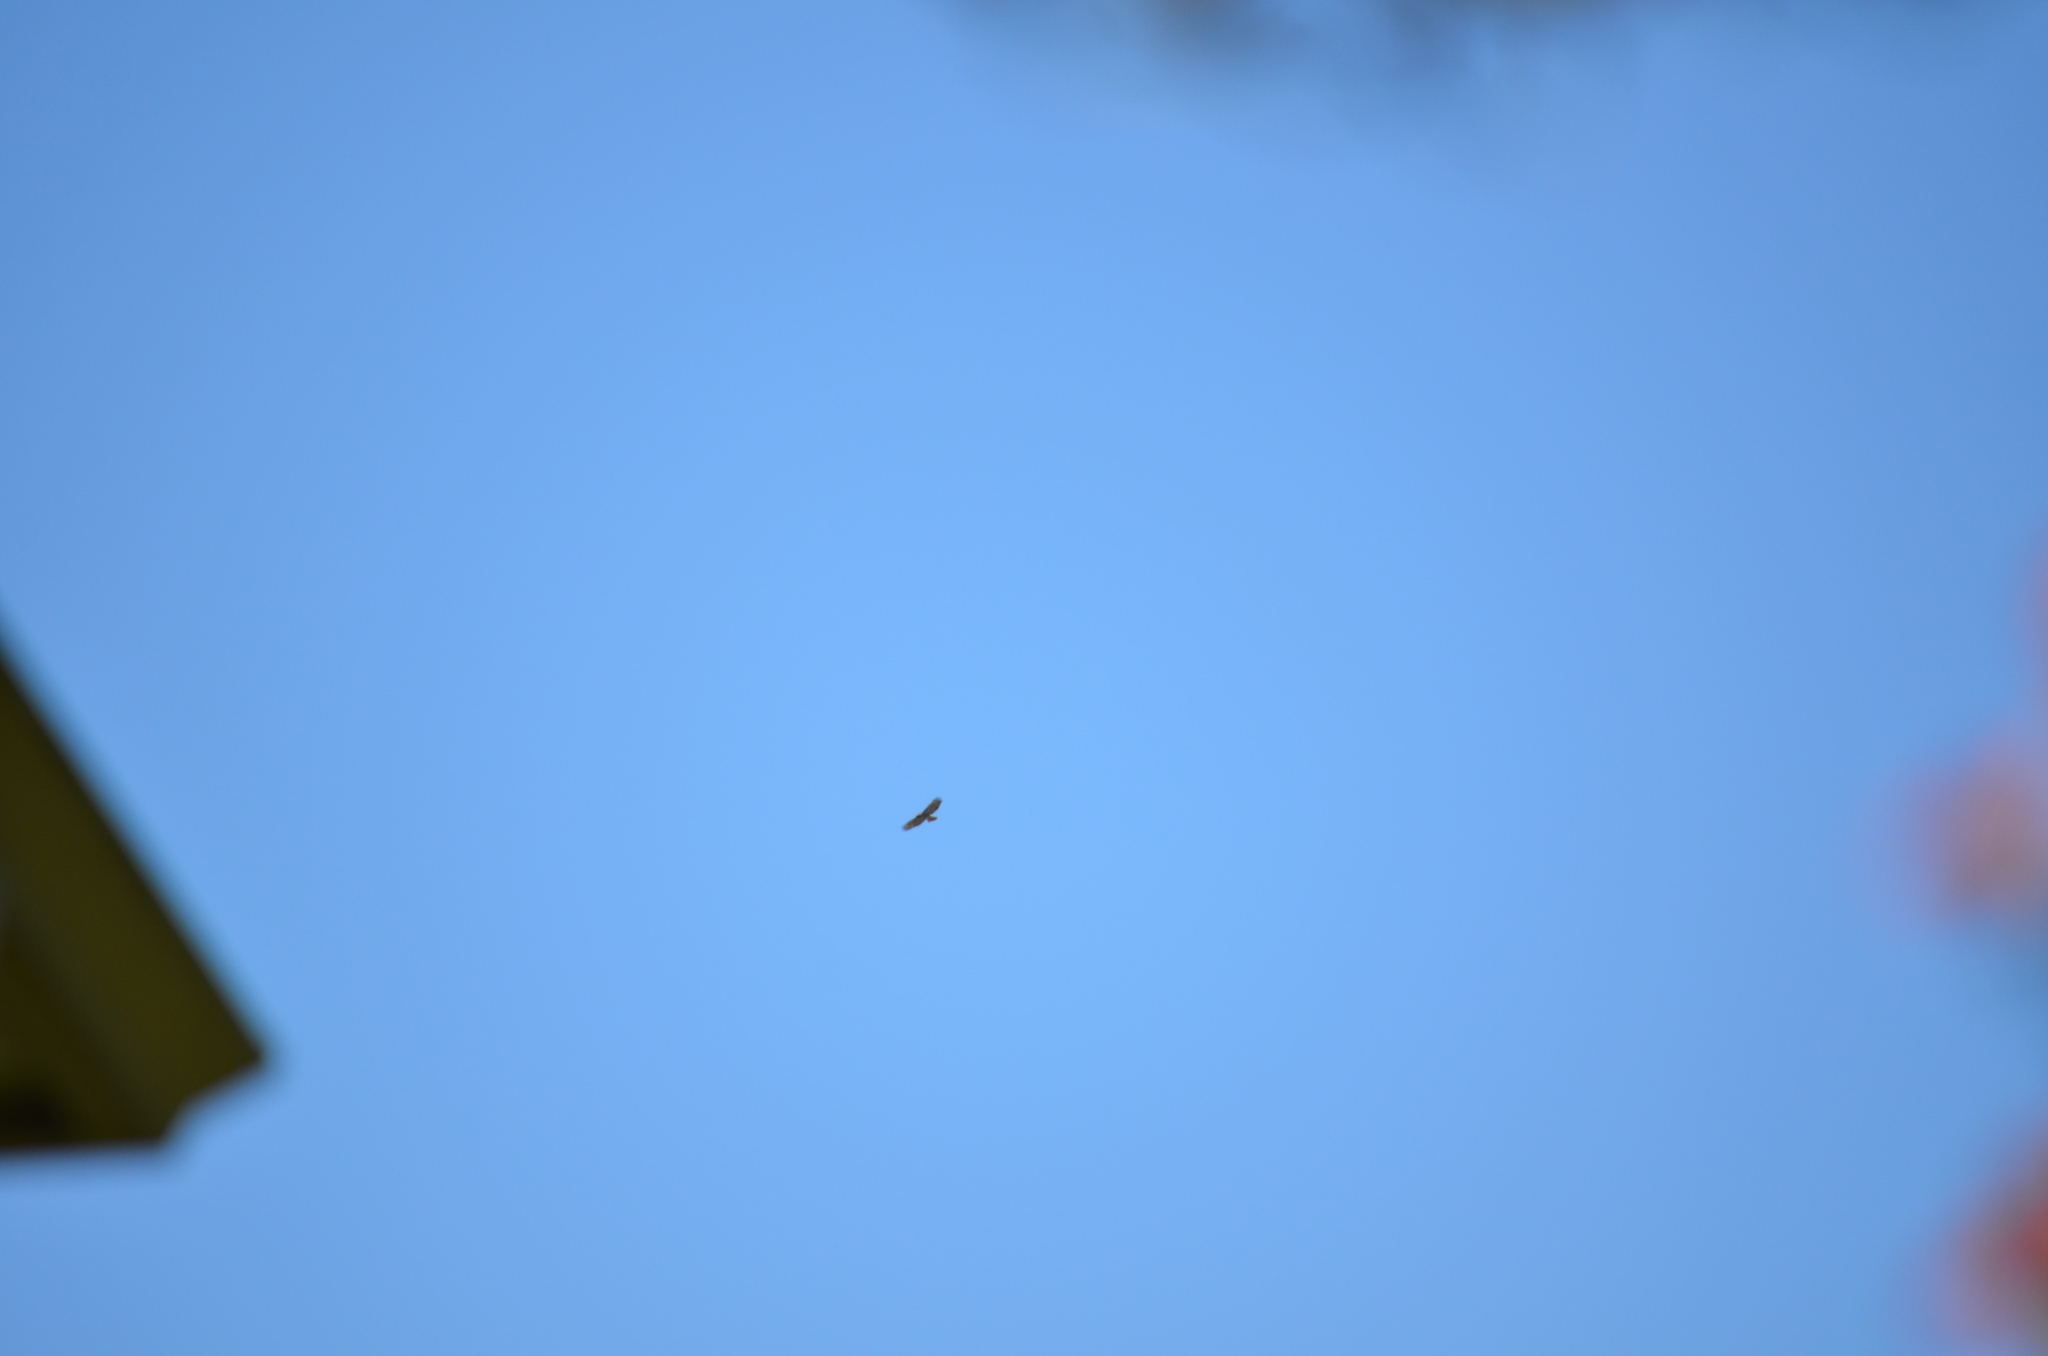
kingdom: Animalia
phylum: Chordata
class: Aves
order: Accipitriformes
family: Accipitridae
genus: Buteo
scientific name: Buteo jamaicensis
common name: Red-tailed hawk
